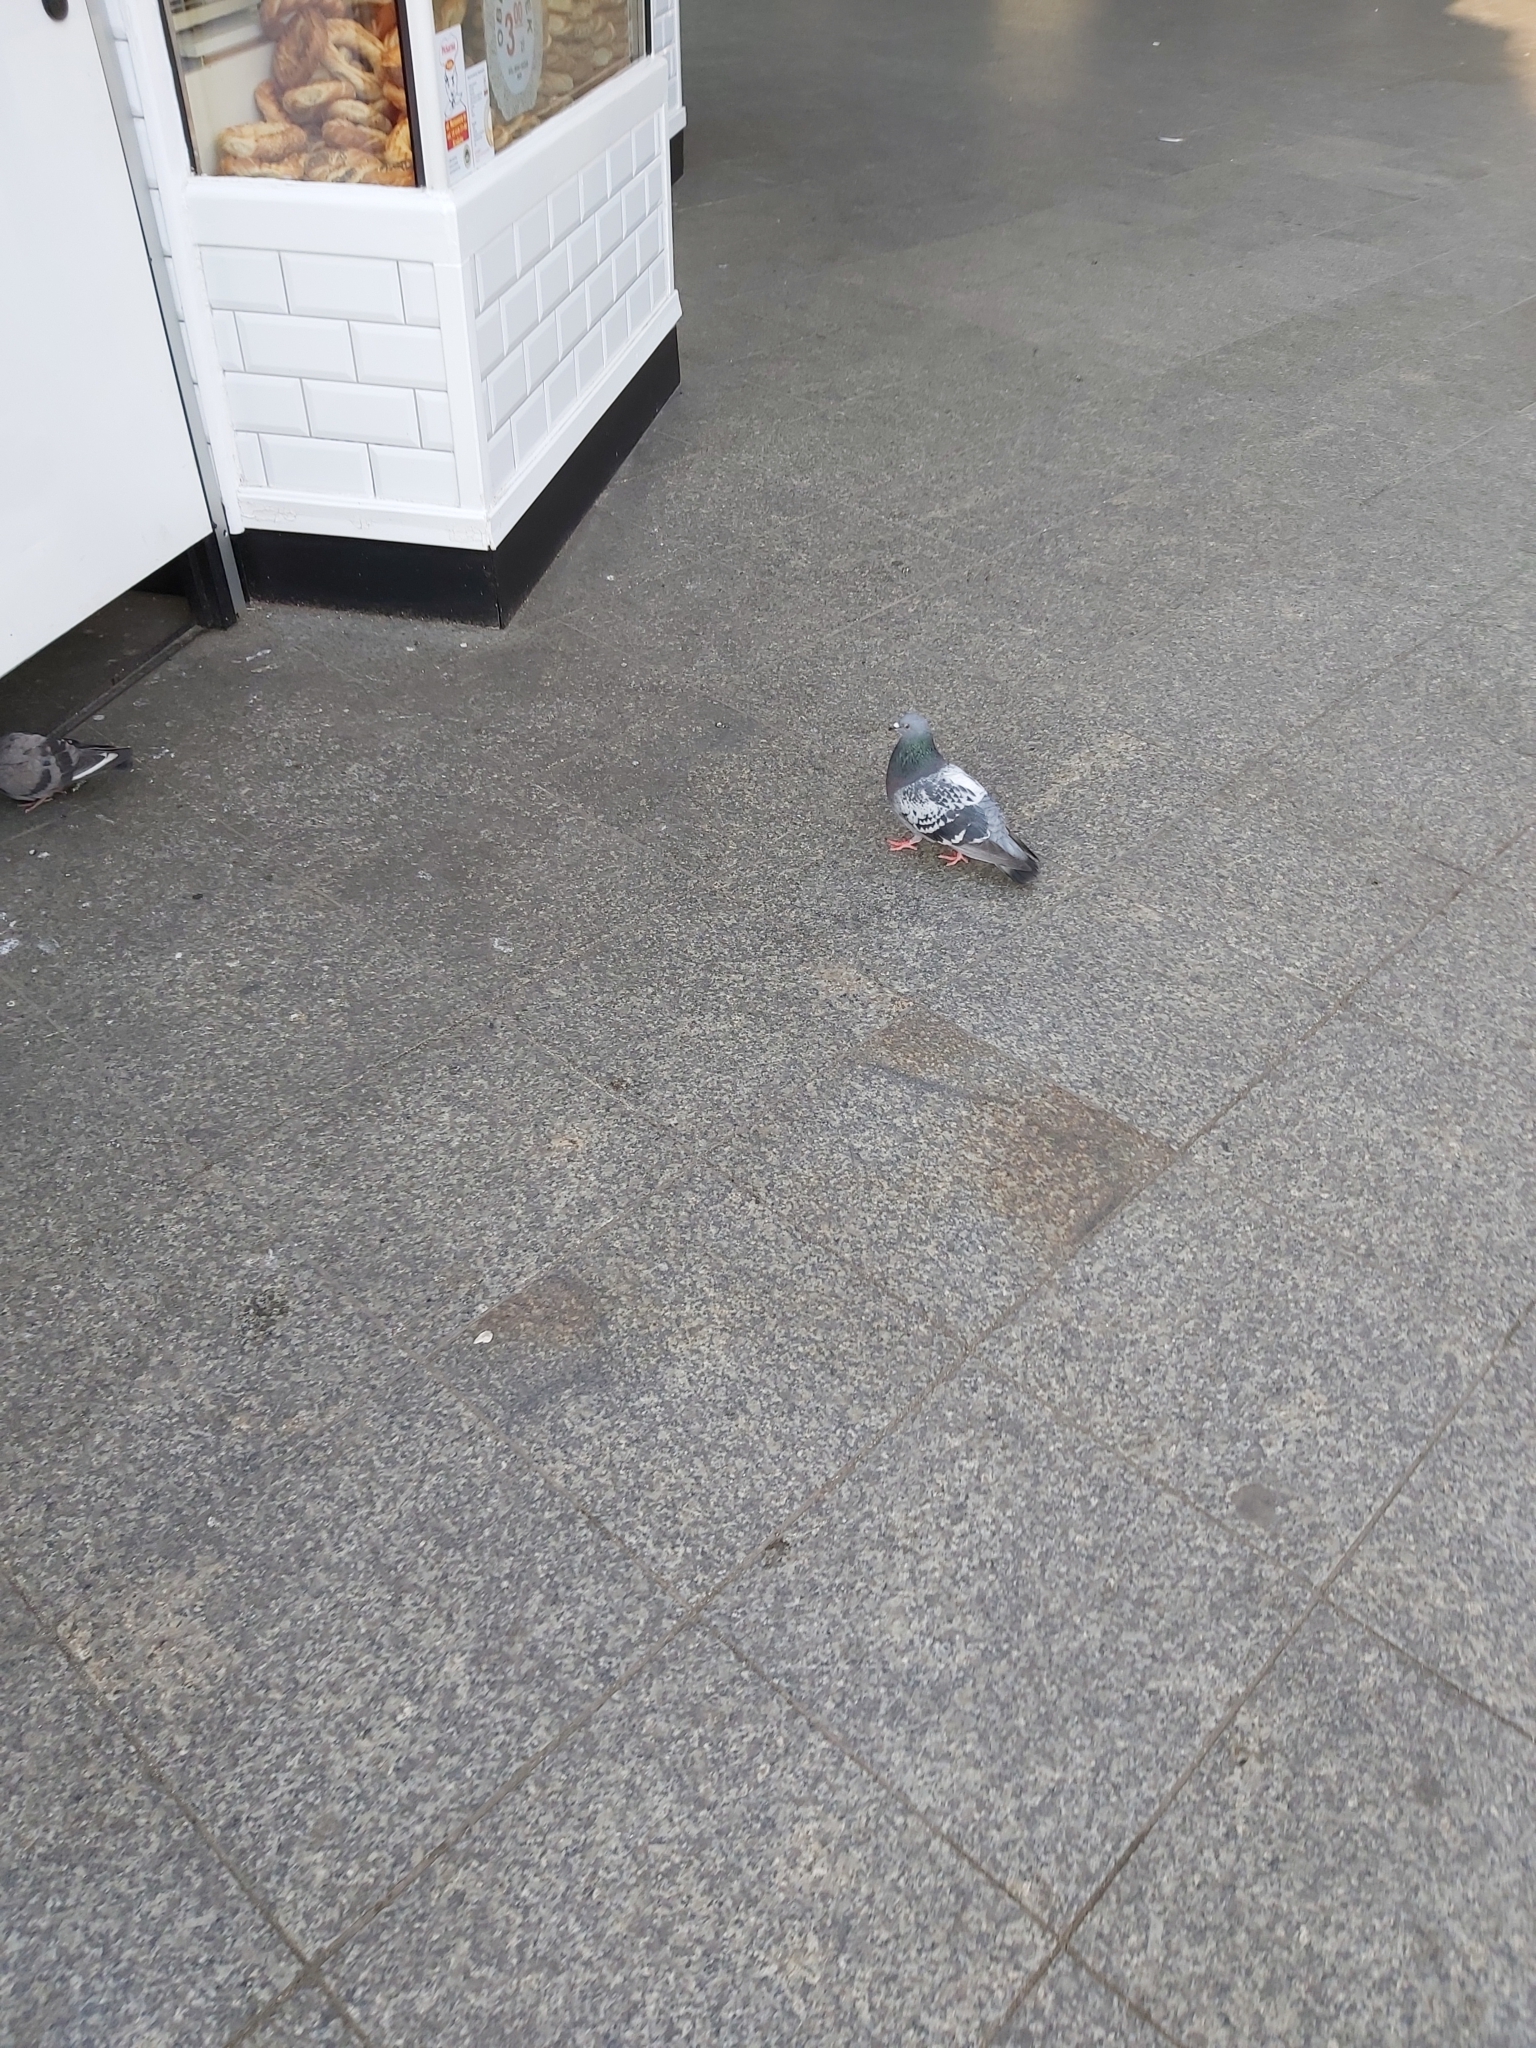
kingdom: Animalia
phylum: Chordata
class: Aves
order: Columbiformes
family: Columbidae
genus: Columba
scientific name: Columba livia
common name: Rock pigeon
